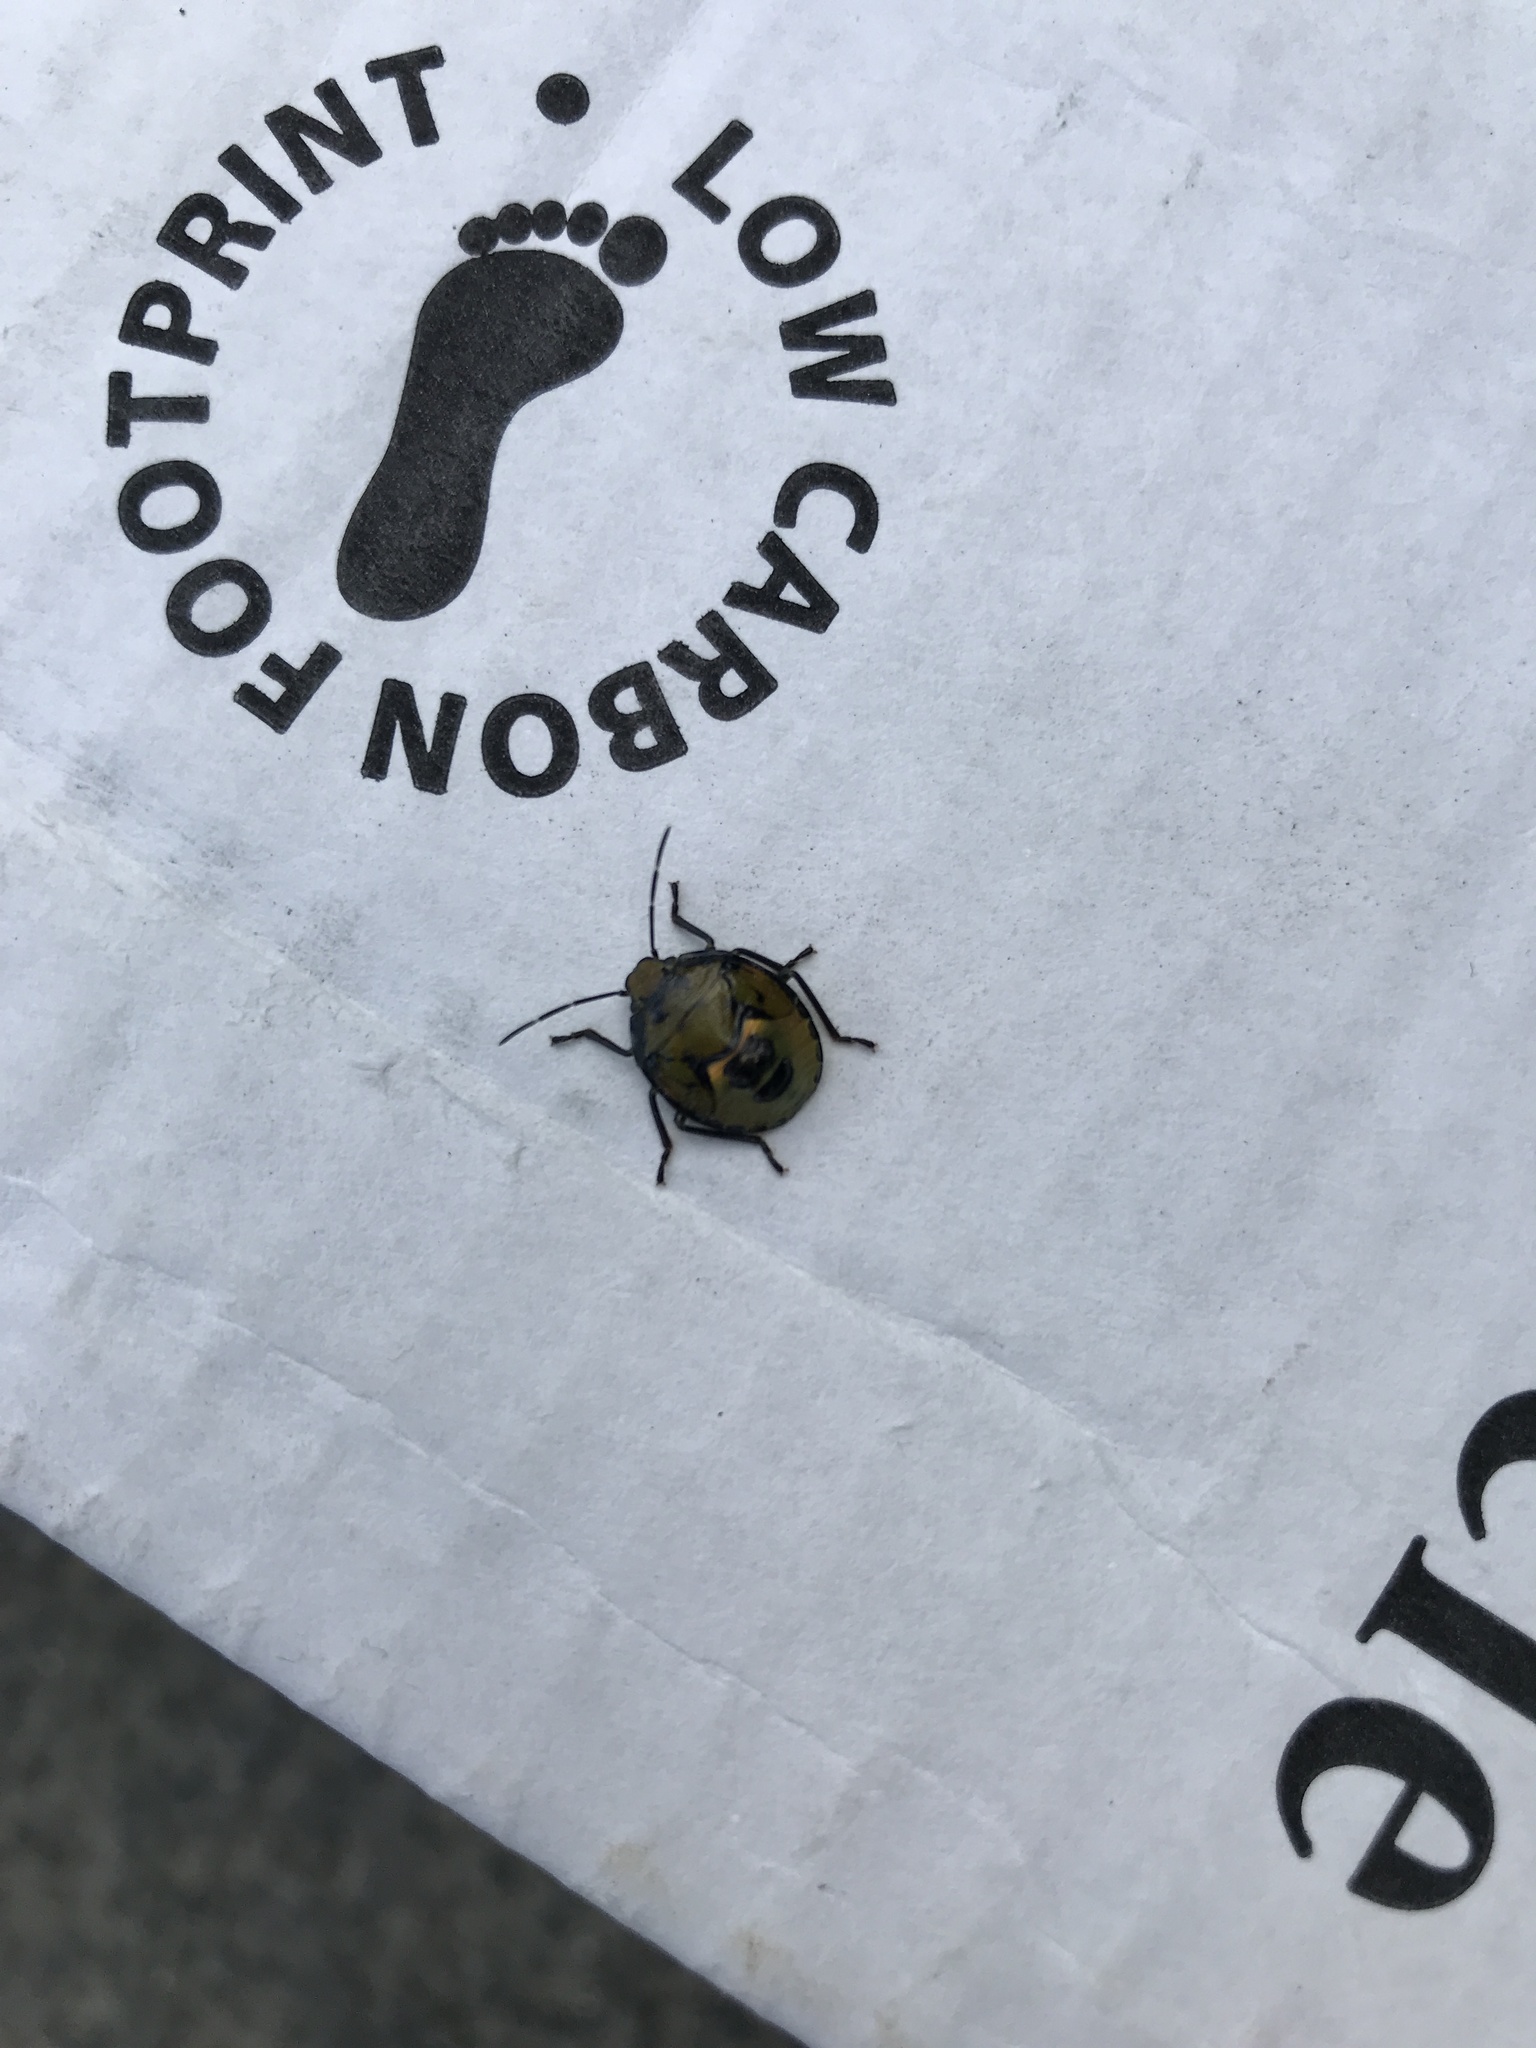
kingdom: Animalia
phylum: Arthropoda
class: Insecta
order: Hemiptera
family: Pentatomidae
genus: Nezara
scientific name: Nezara viridula
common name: Southern green stink bug
